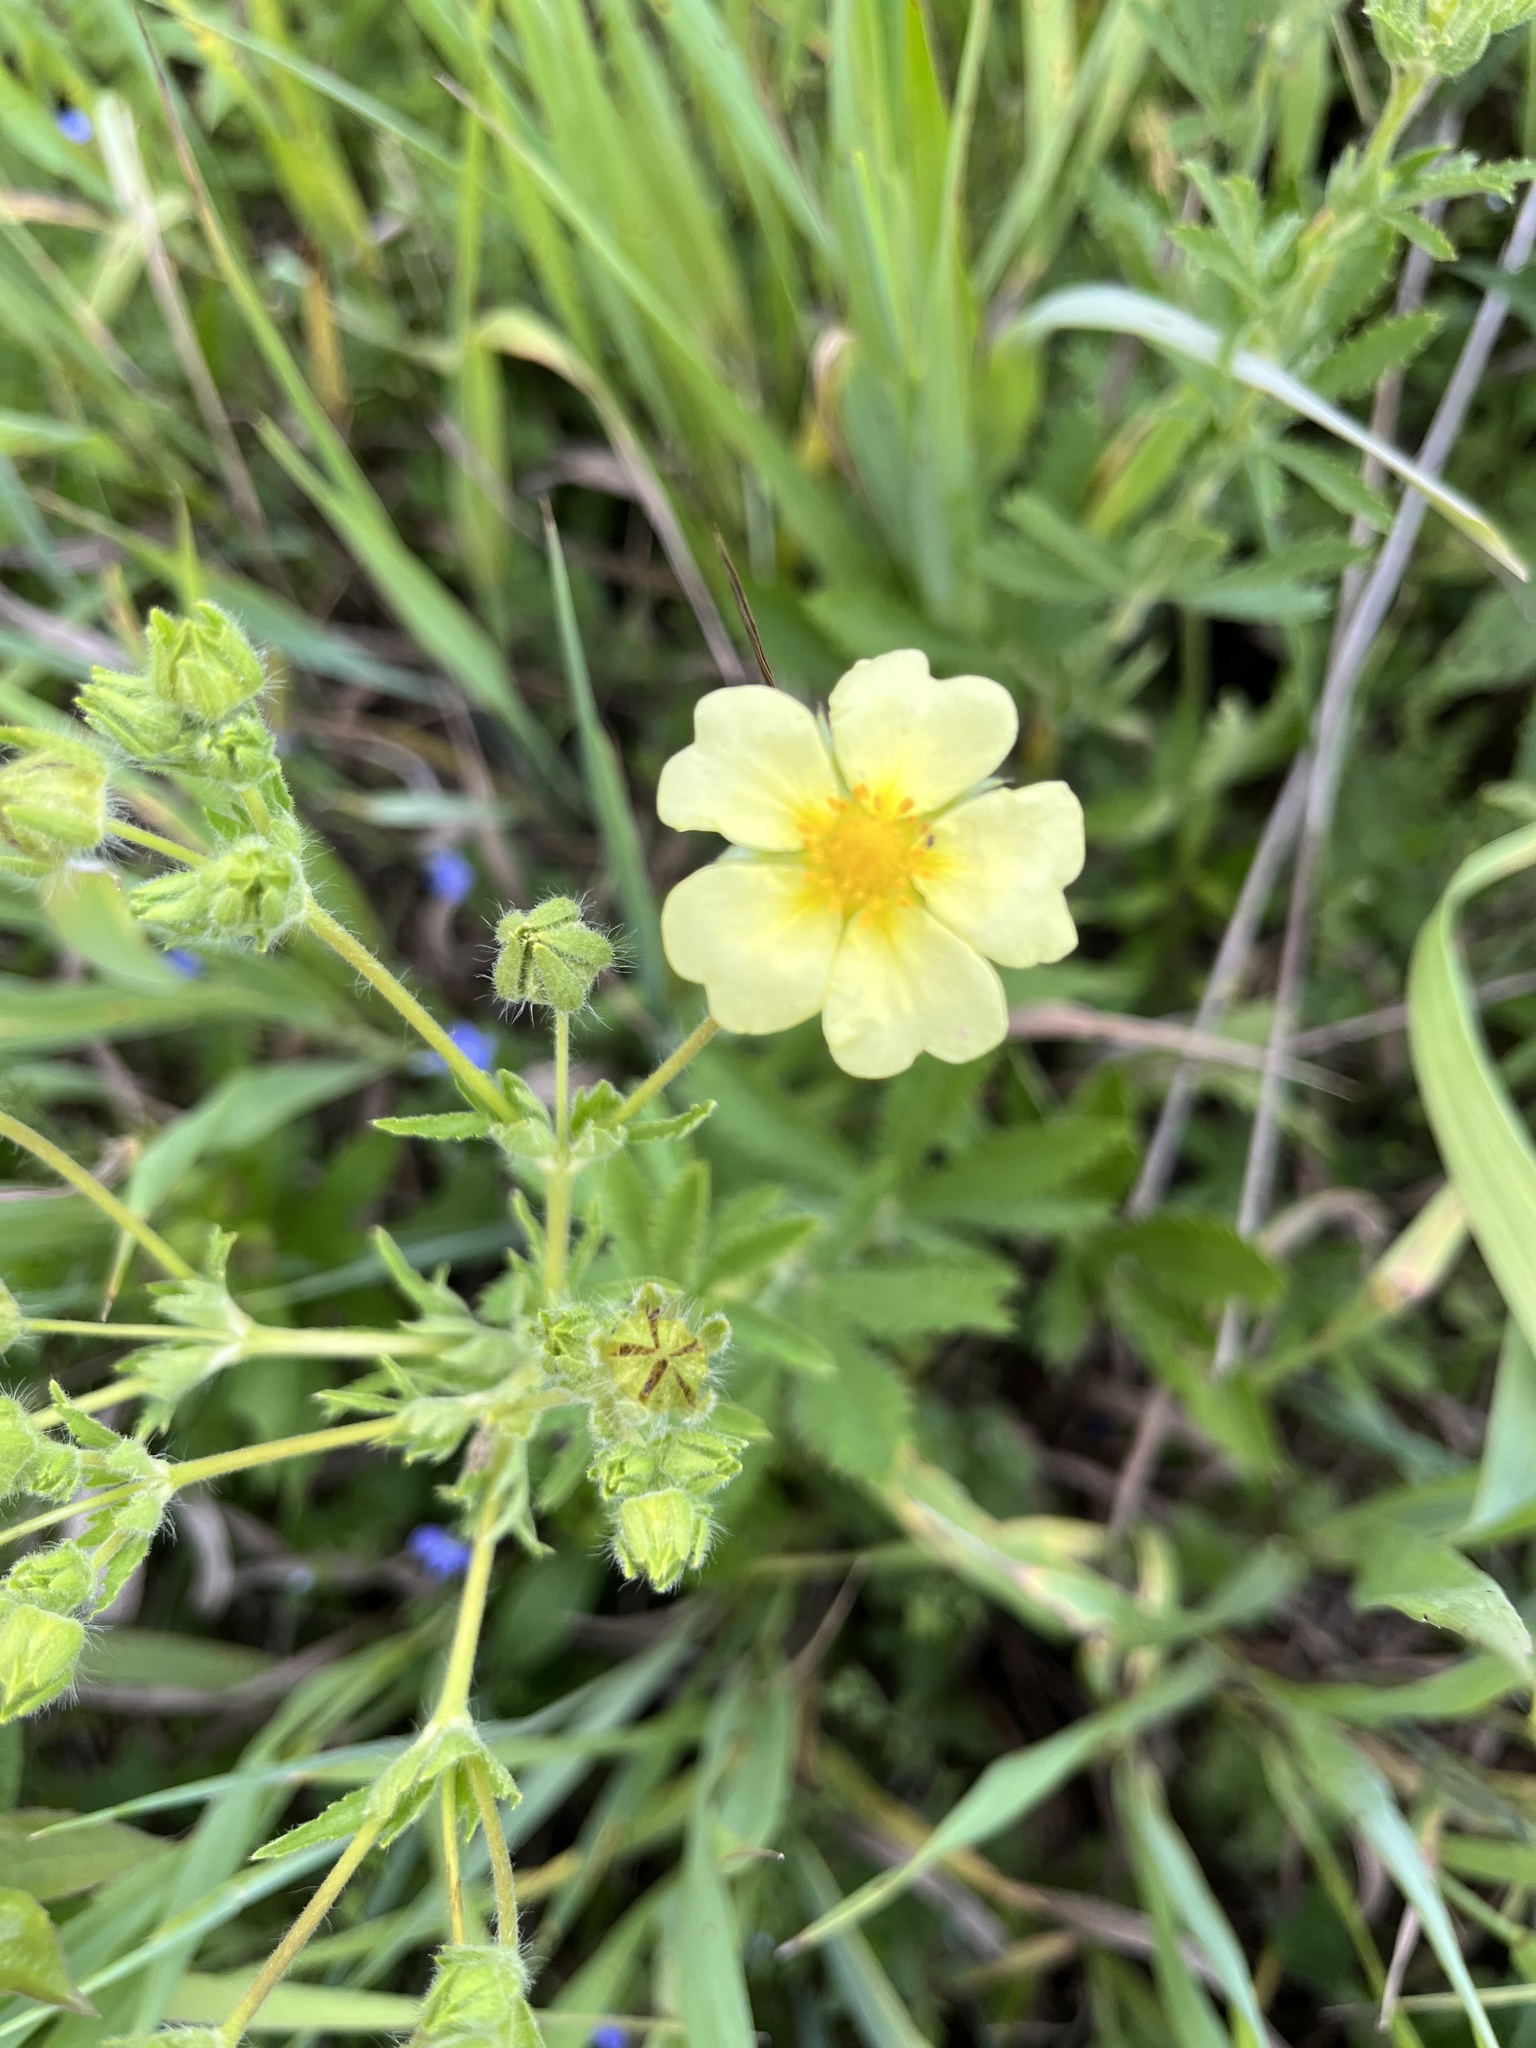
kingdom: Plantae
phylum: Tracheophyta
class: Magnoliopsida
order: Rosales
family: Rosaceae
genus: Potentilla
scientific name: Potentilla recta
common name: Sulphur cinquefoil
